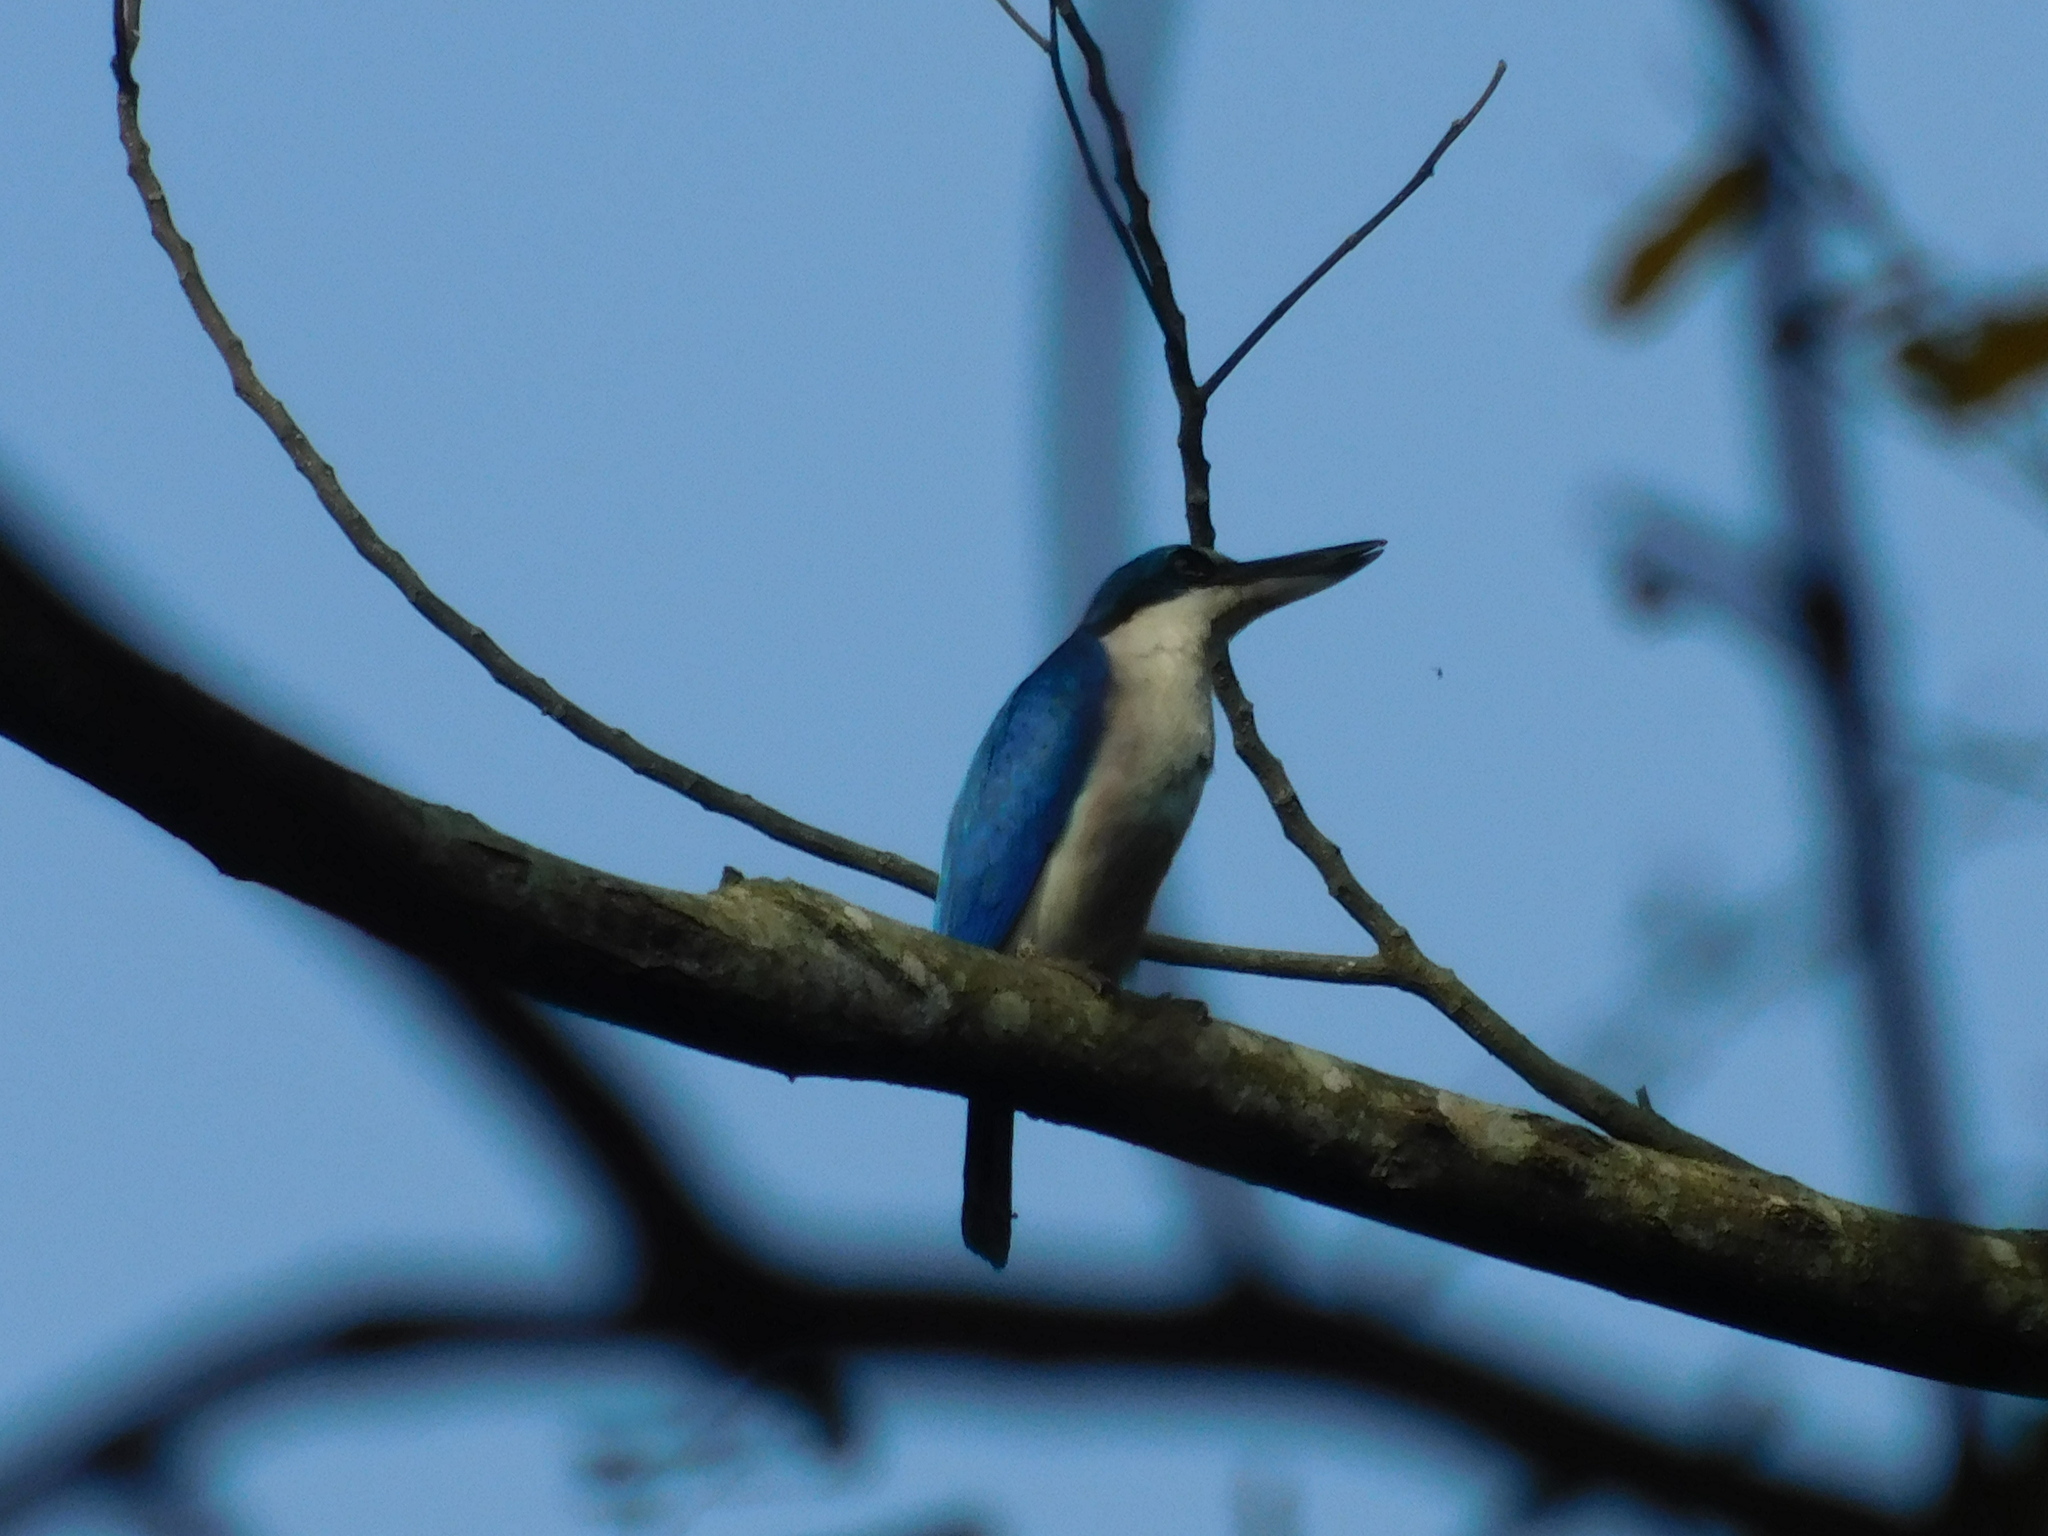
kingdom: Animalia
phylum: Chordata
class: Aves
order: Coraciiformes
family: Alcedinidae
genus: Todiramphus
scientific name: Todiramphus chloris
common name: Collared kingfisher
